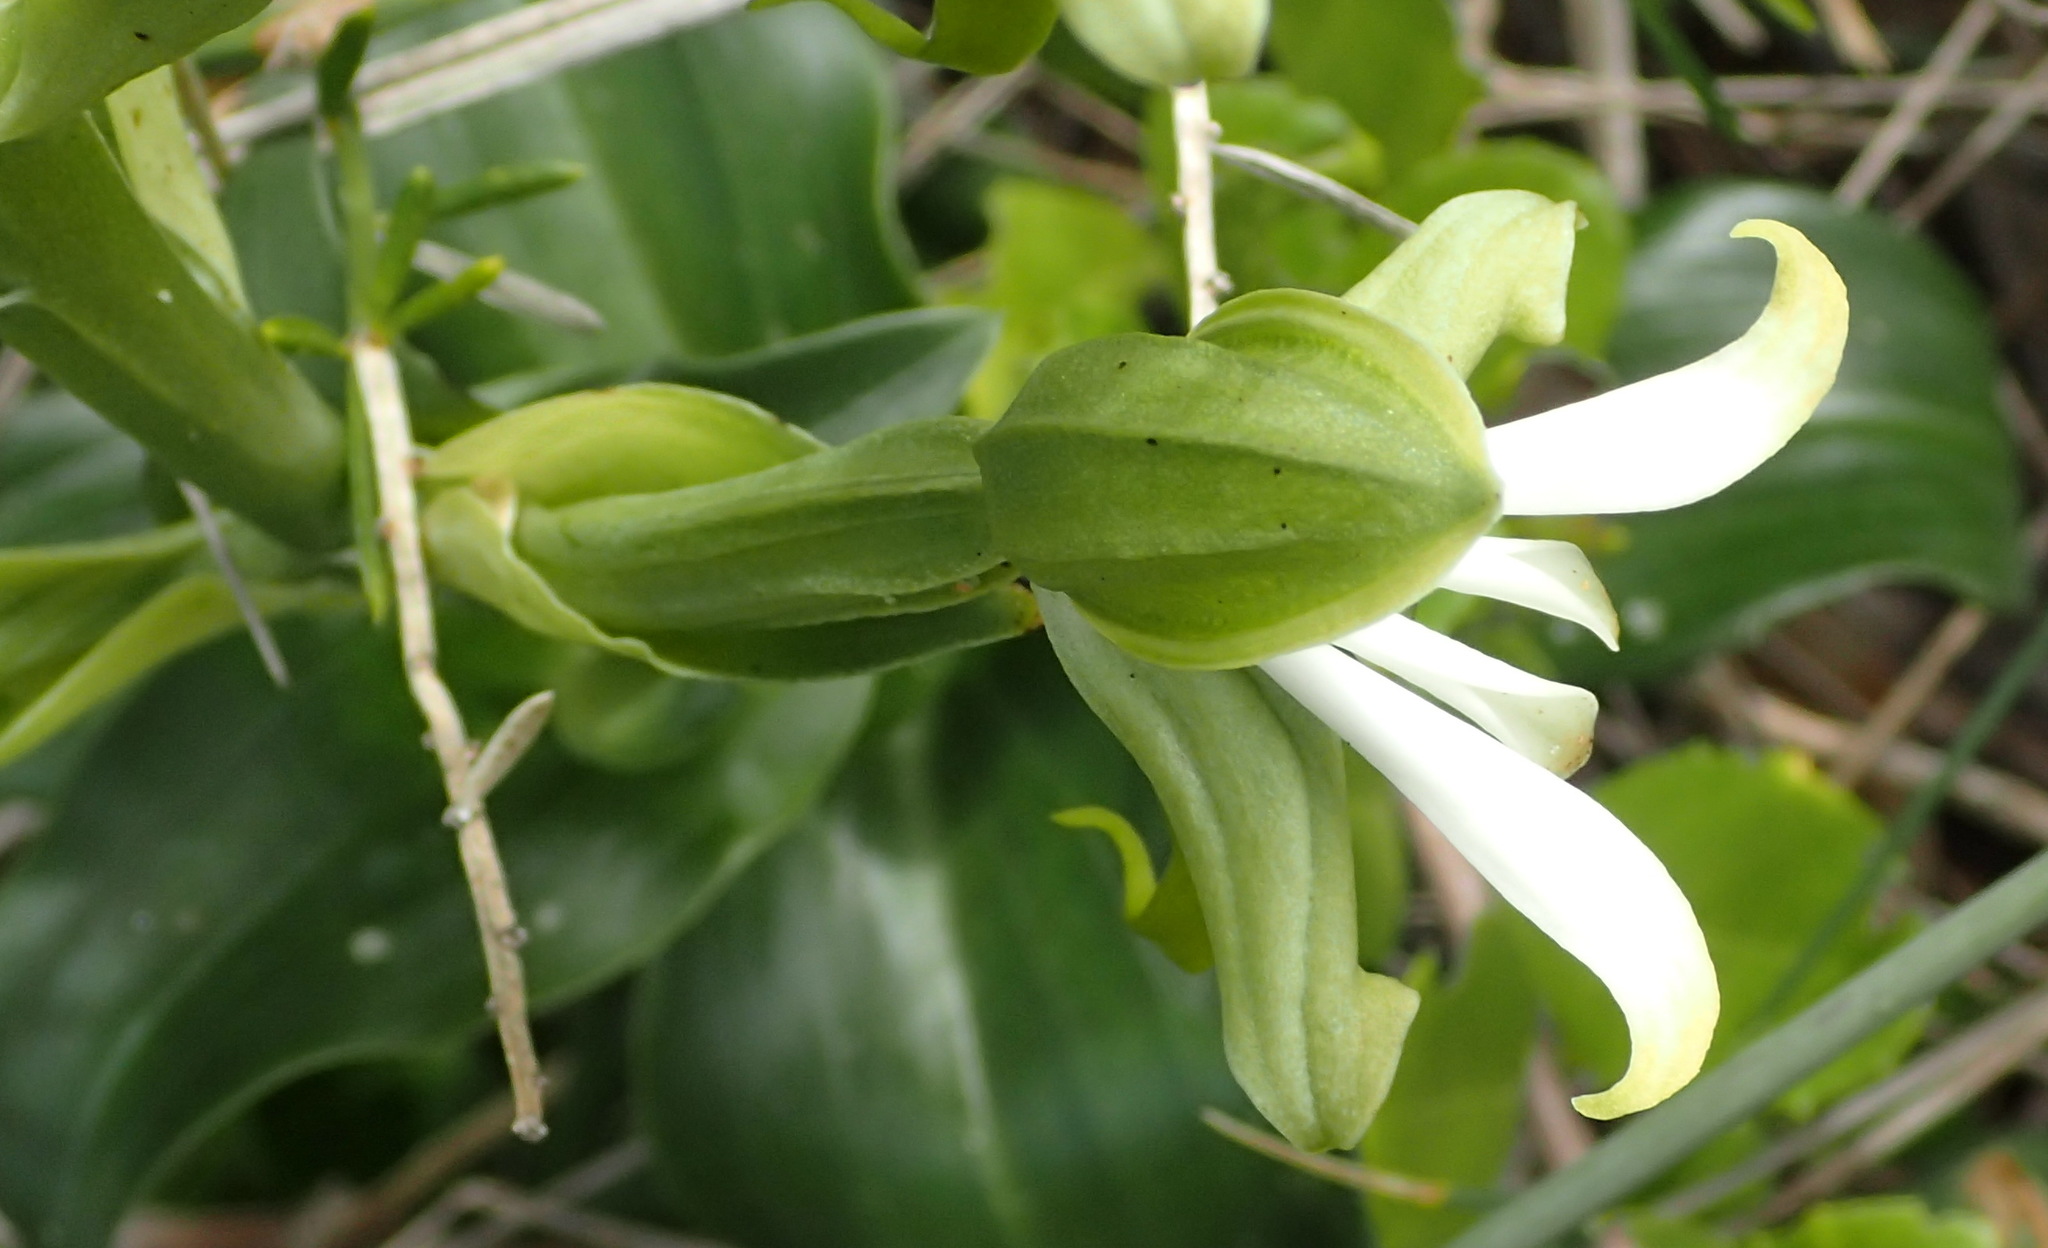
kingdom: Plantae
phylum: Tracheophyta
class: Liliopsida
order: Asparagales
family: Orchidaceae
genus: Bonatea
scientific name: Bonatea speciosa
